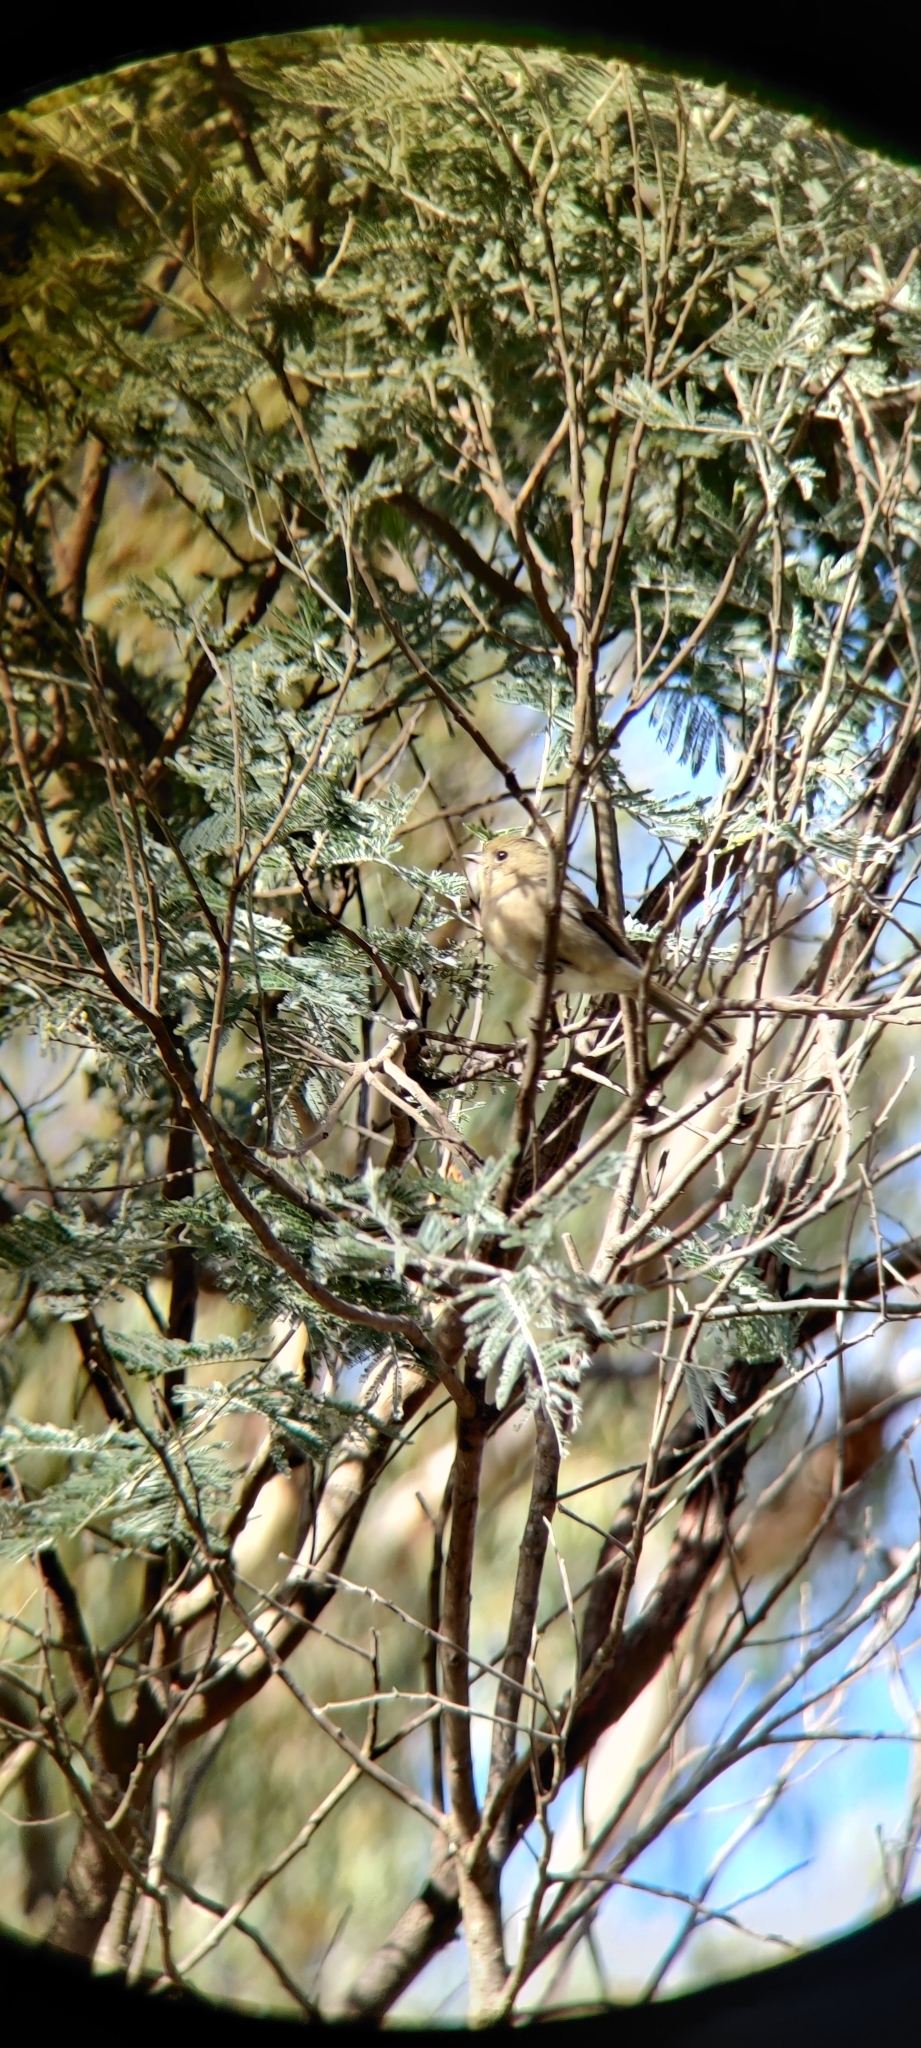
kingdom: Animalia
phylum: Chordata
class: Aves
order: Passeriformes
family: Pachycephalidae
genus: Pachycephala
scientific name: Pachycephala pectoralis
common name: Australian golden whistler
